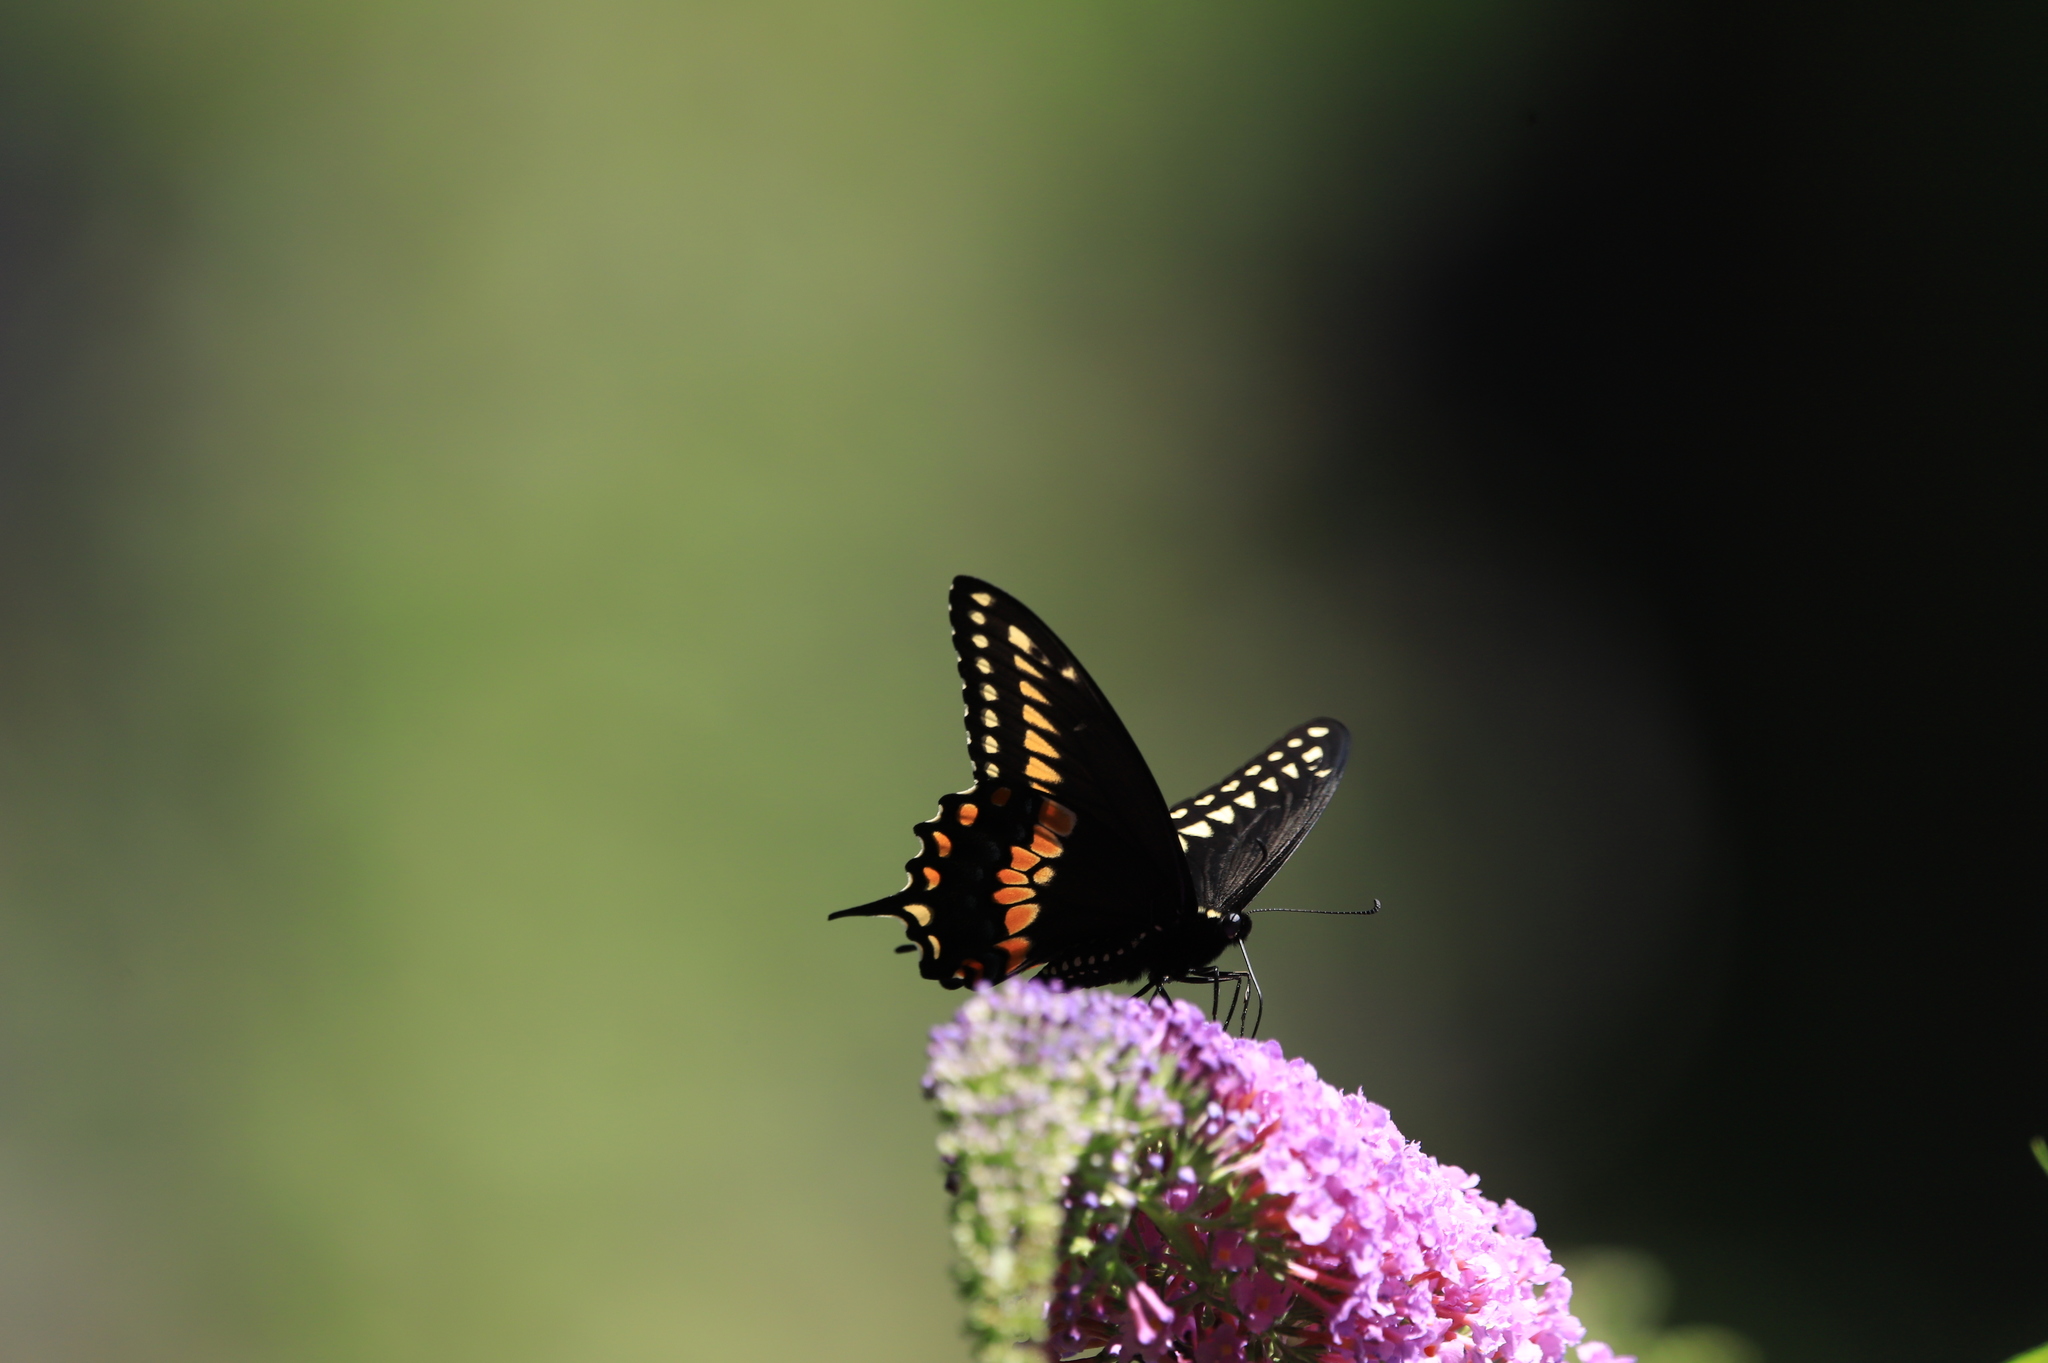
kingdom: Animalia
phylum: Arthropoda
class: Insecta
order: Lepidoptera
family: Papilionidae
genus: Papilio
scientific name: Papilio polyxenes
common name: Black swallowtail
